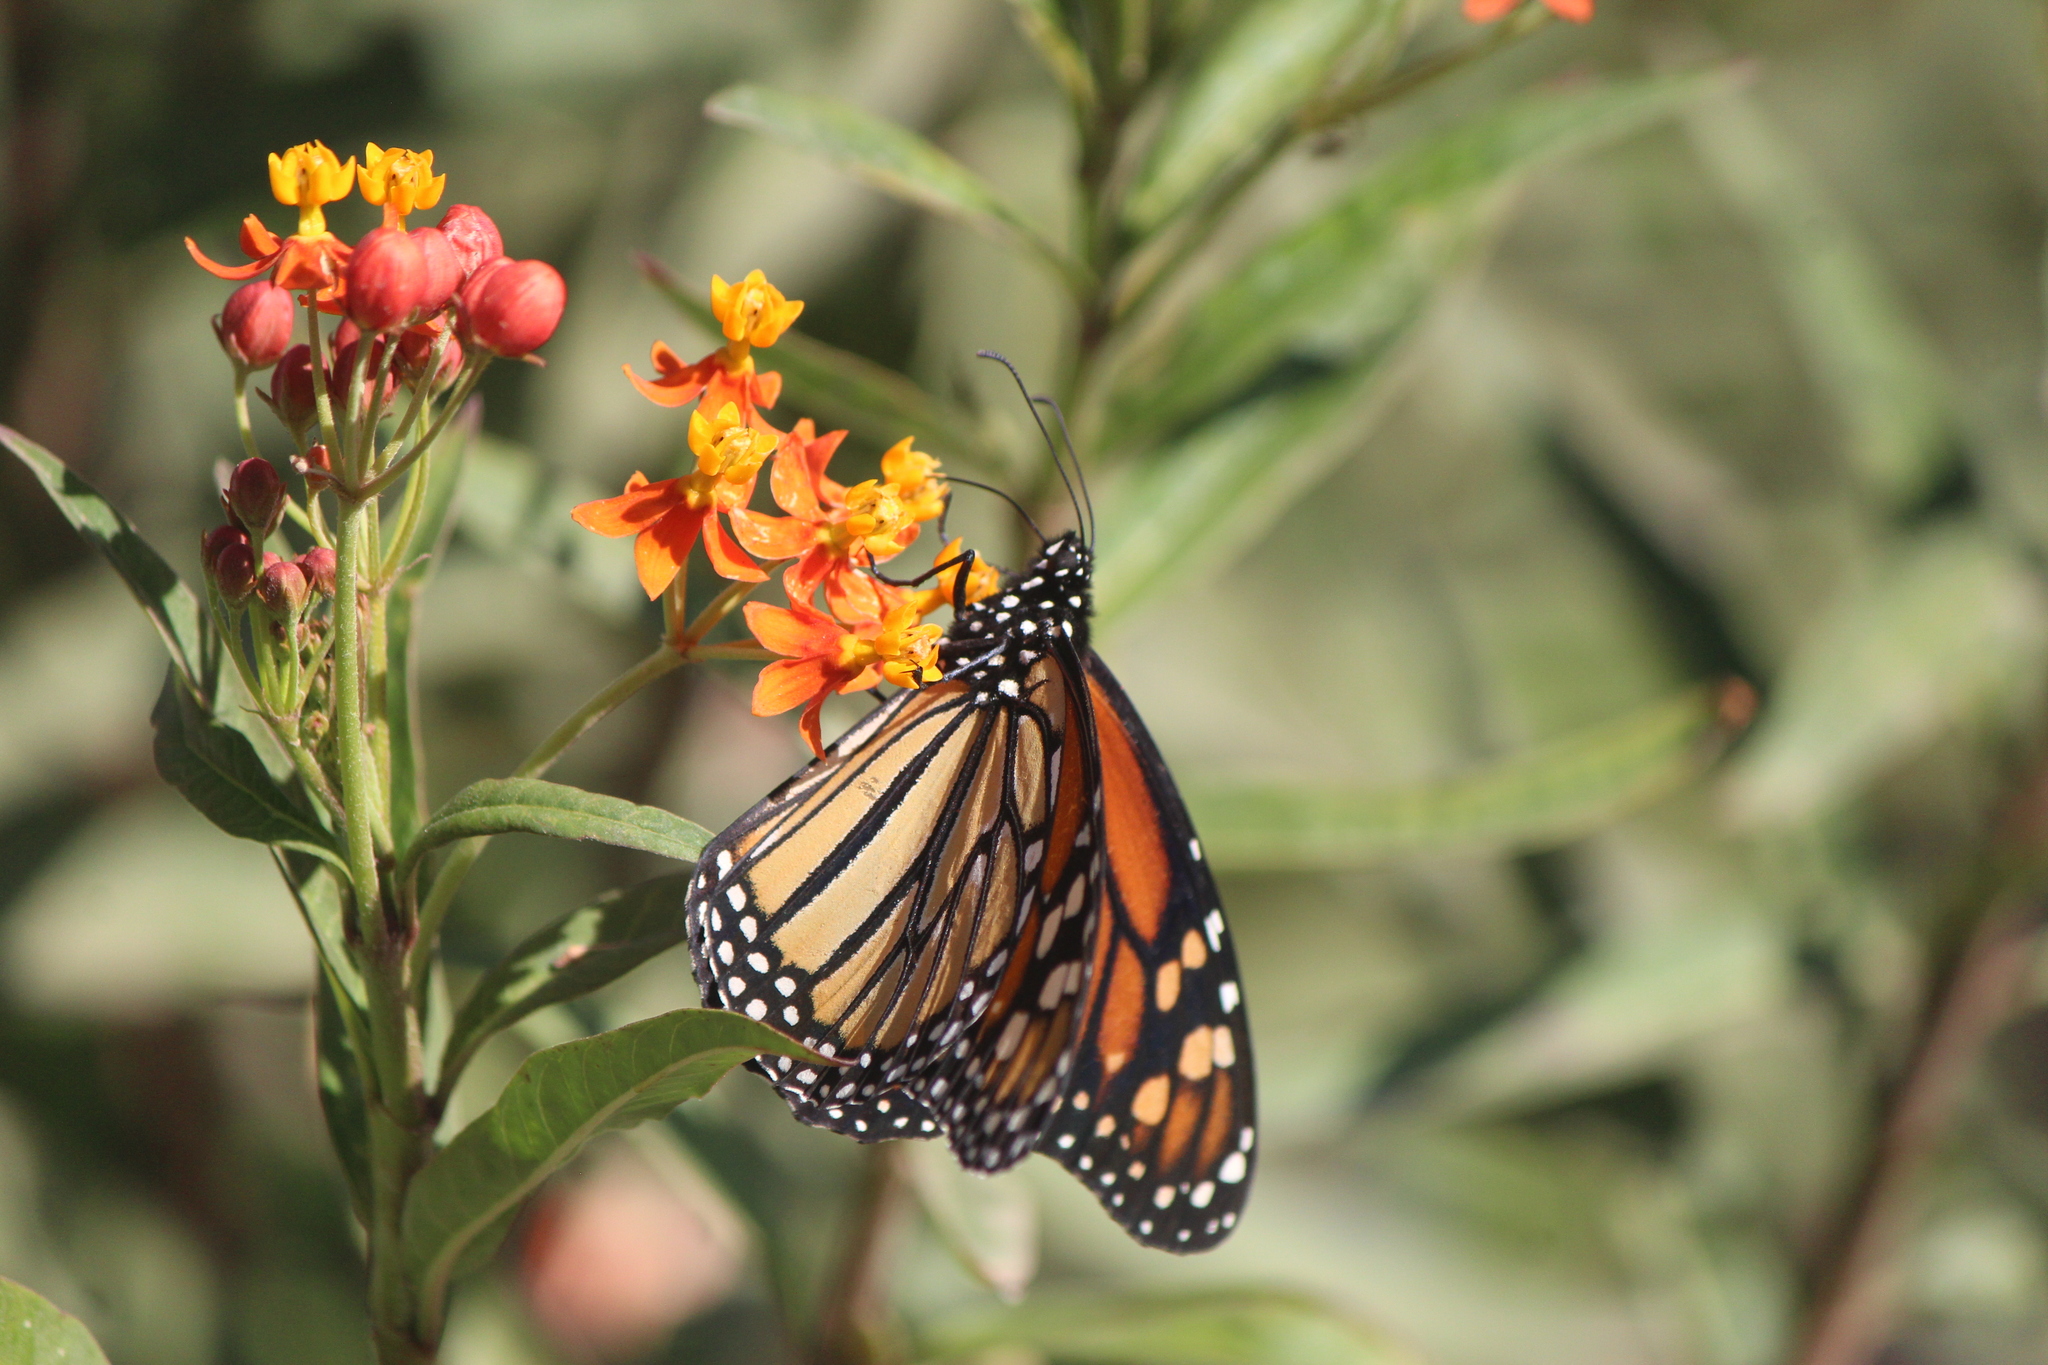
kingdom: Animalia
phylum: Arthropoda
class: Insecta
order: Lepidoptera
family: Nymphalidae
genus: Danaus
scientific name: Danaus plexippus
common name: Monarch
